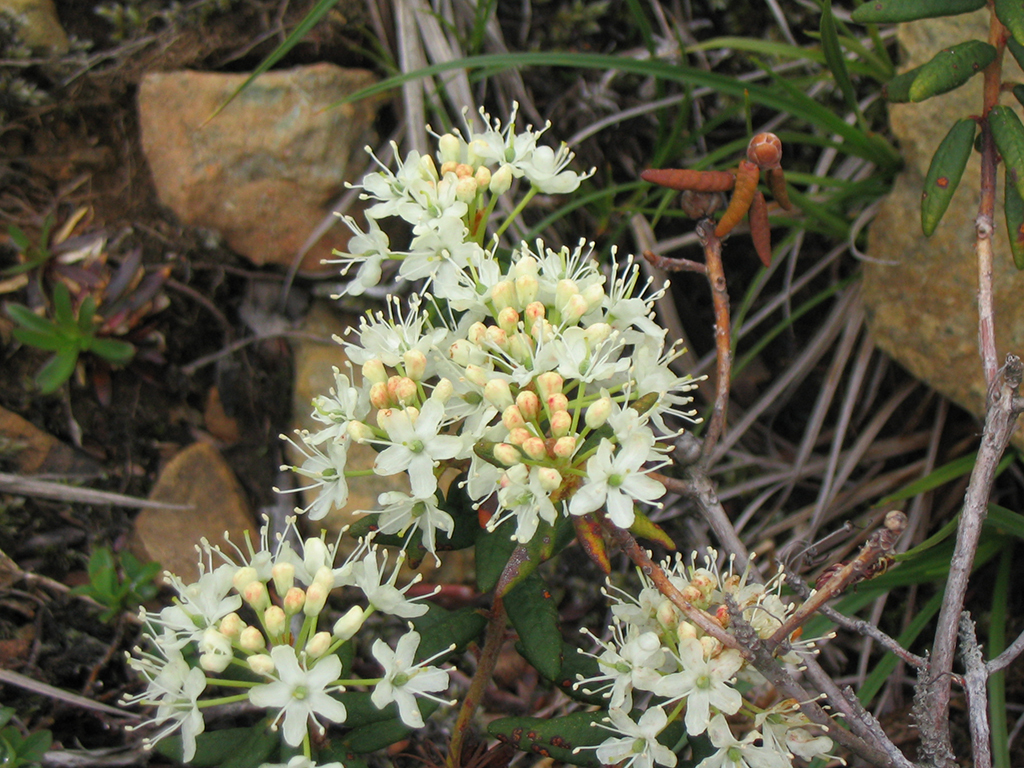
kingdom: Plantae
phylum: Tracheophyta
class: Magnoliopsida
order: Ericales
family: Ericaceae
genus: Rhododendron
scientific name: Rhododendron groenlandicum
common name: Bog labrador tea
